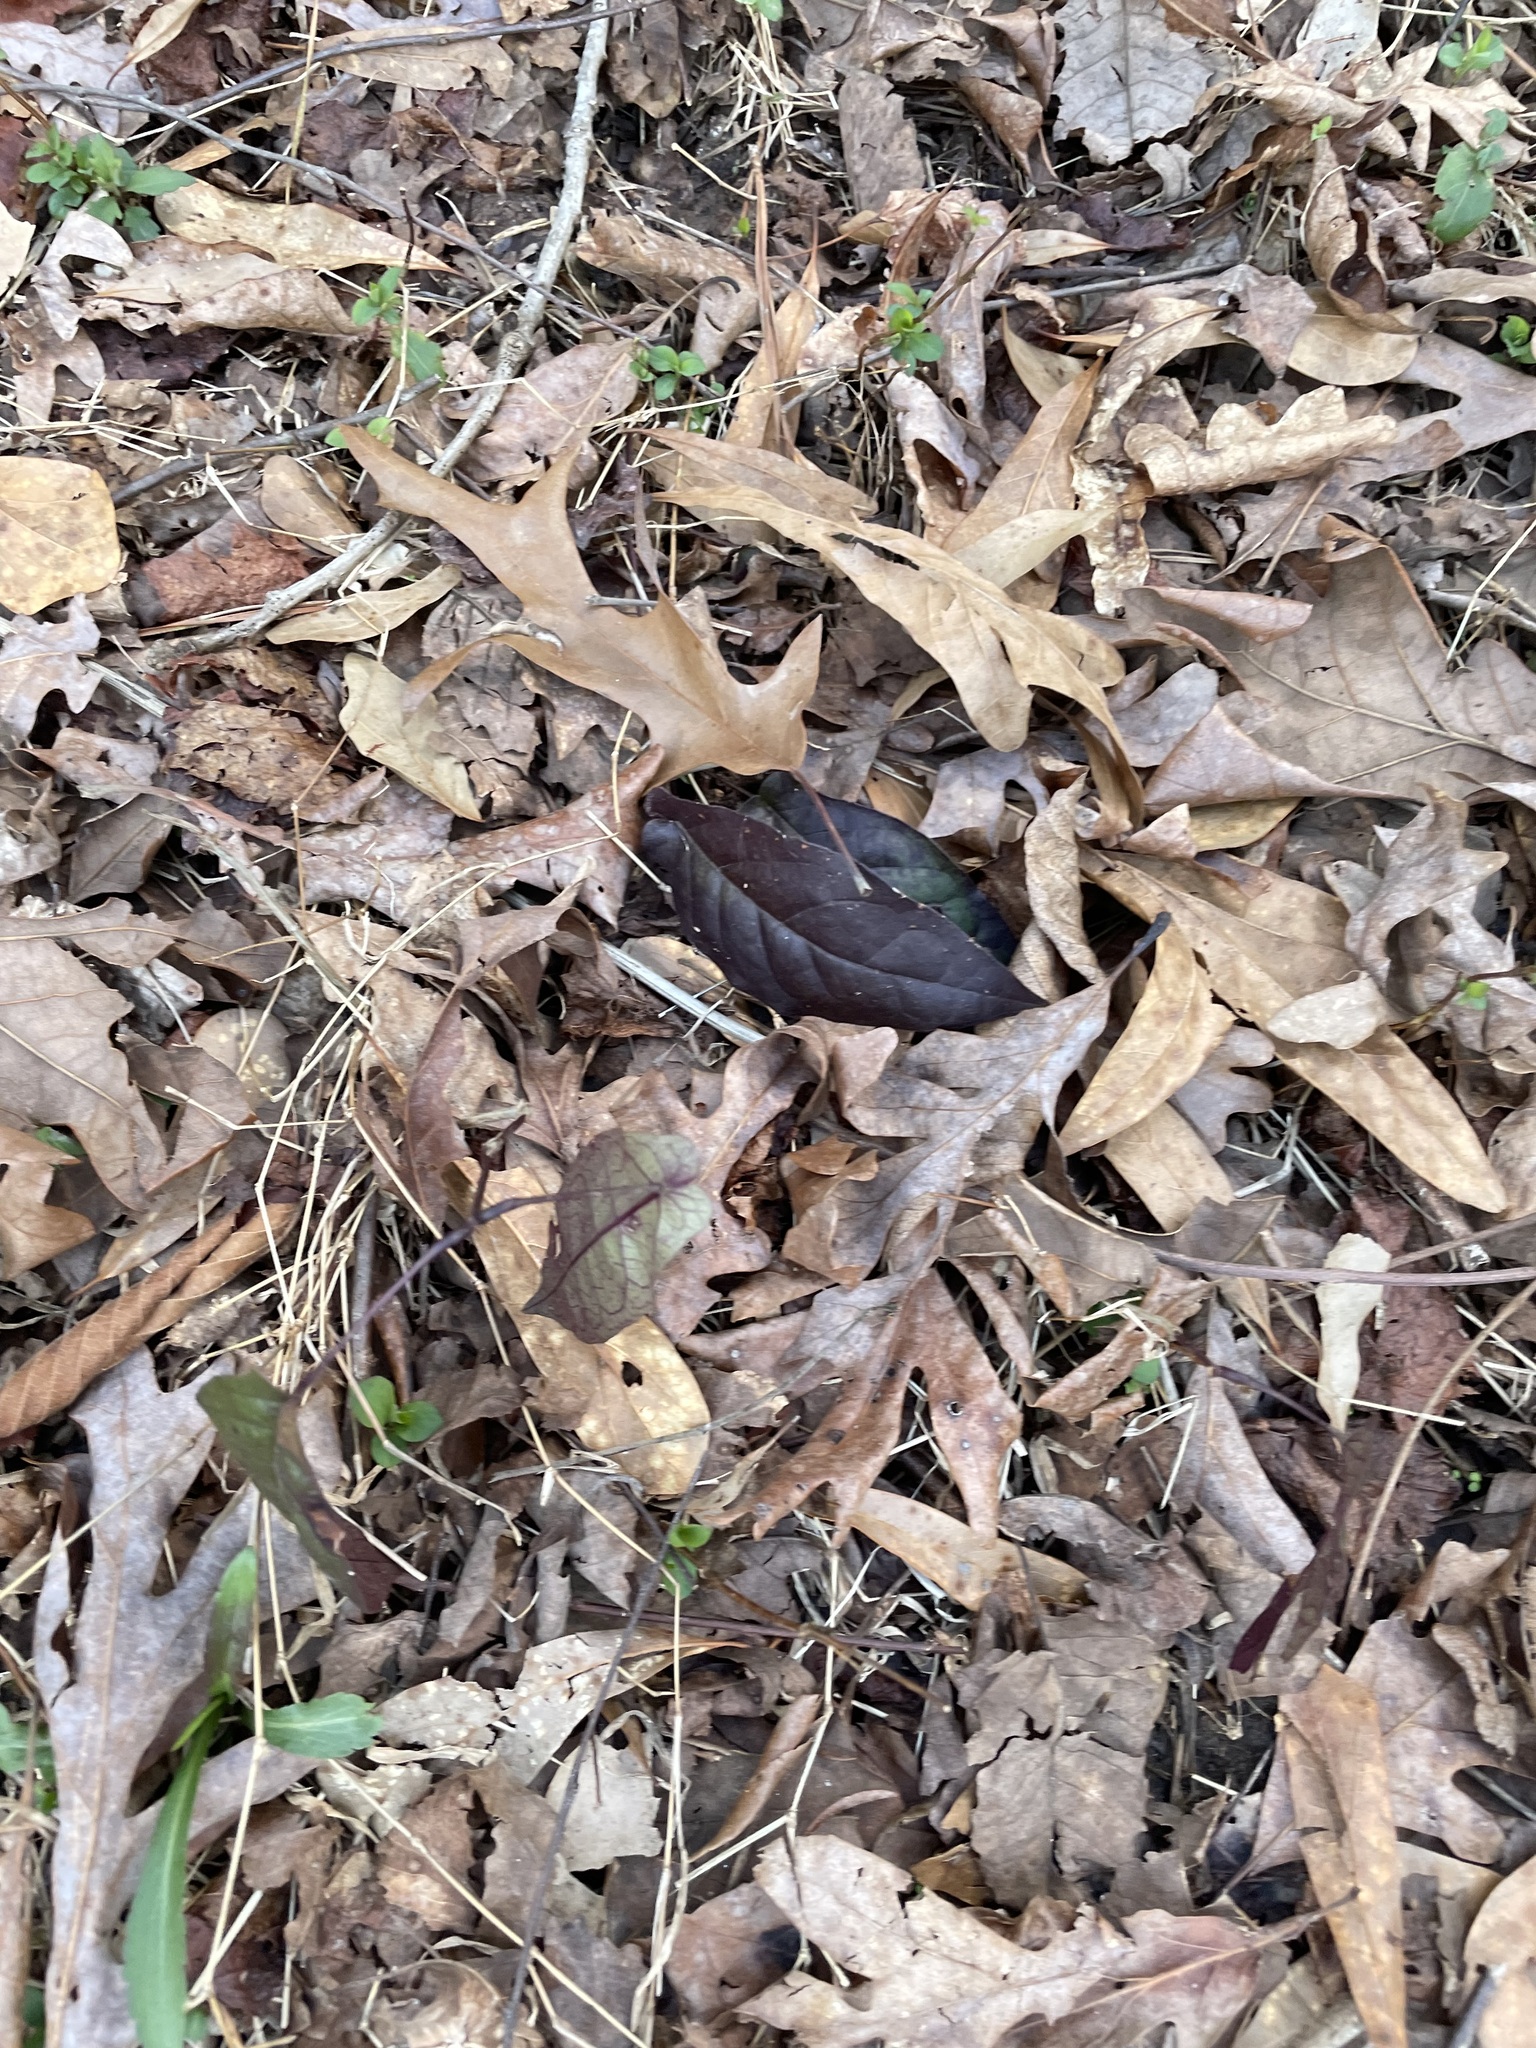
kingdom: Plantae
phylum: Tracheophyta
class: Magnoliopsida
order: Lamiales
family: Bignoniaceae
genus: Bignonia
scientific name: Bignonia capreolata
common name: Crossvine
